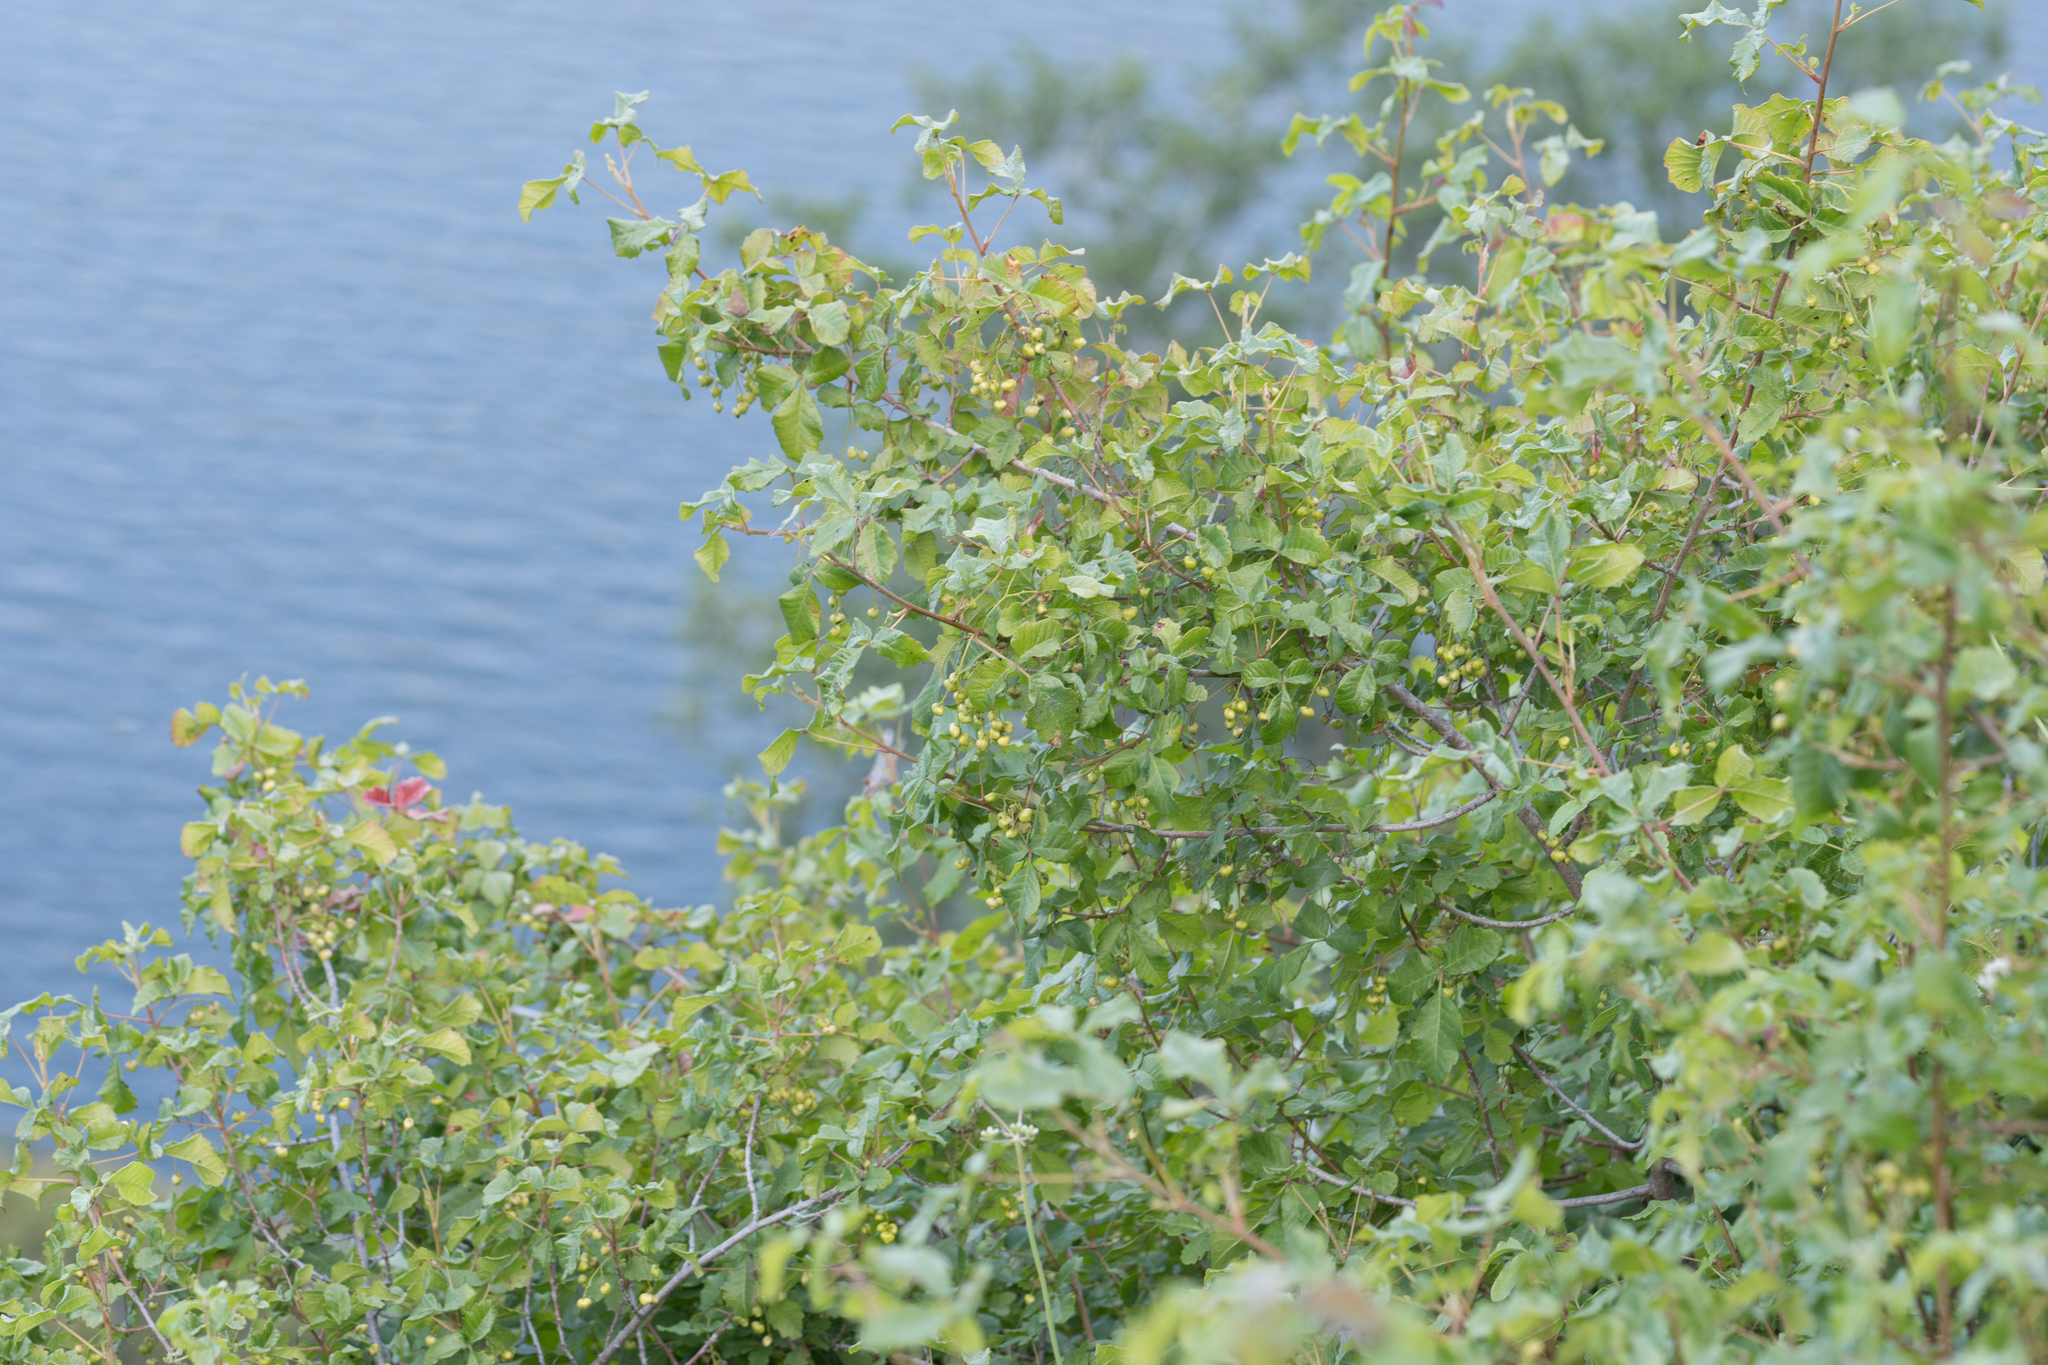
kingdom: Plantae
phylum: Tracheophyta
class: Magnoliopsida
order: Sapindales
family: Anacardiaceae
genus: Toxicodendron
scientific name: Toxicodendron diversilobum
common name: Pacific poison-oak
